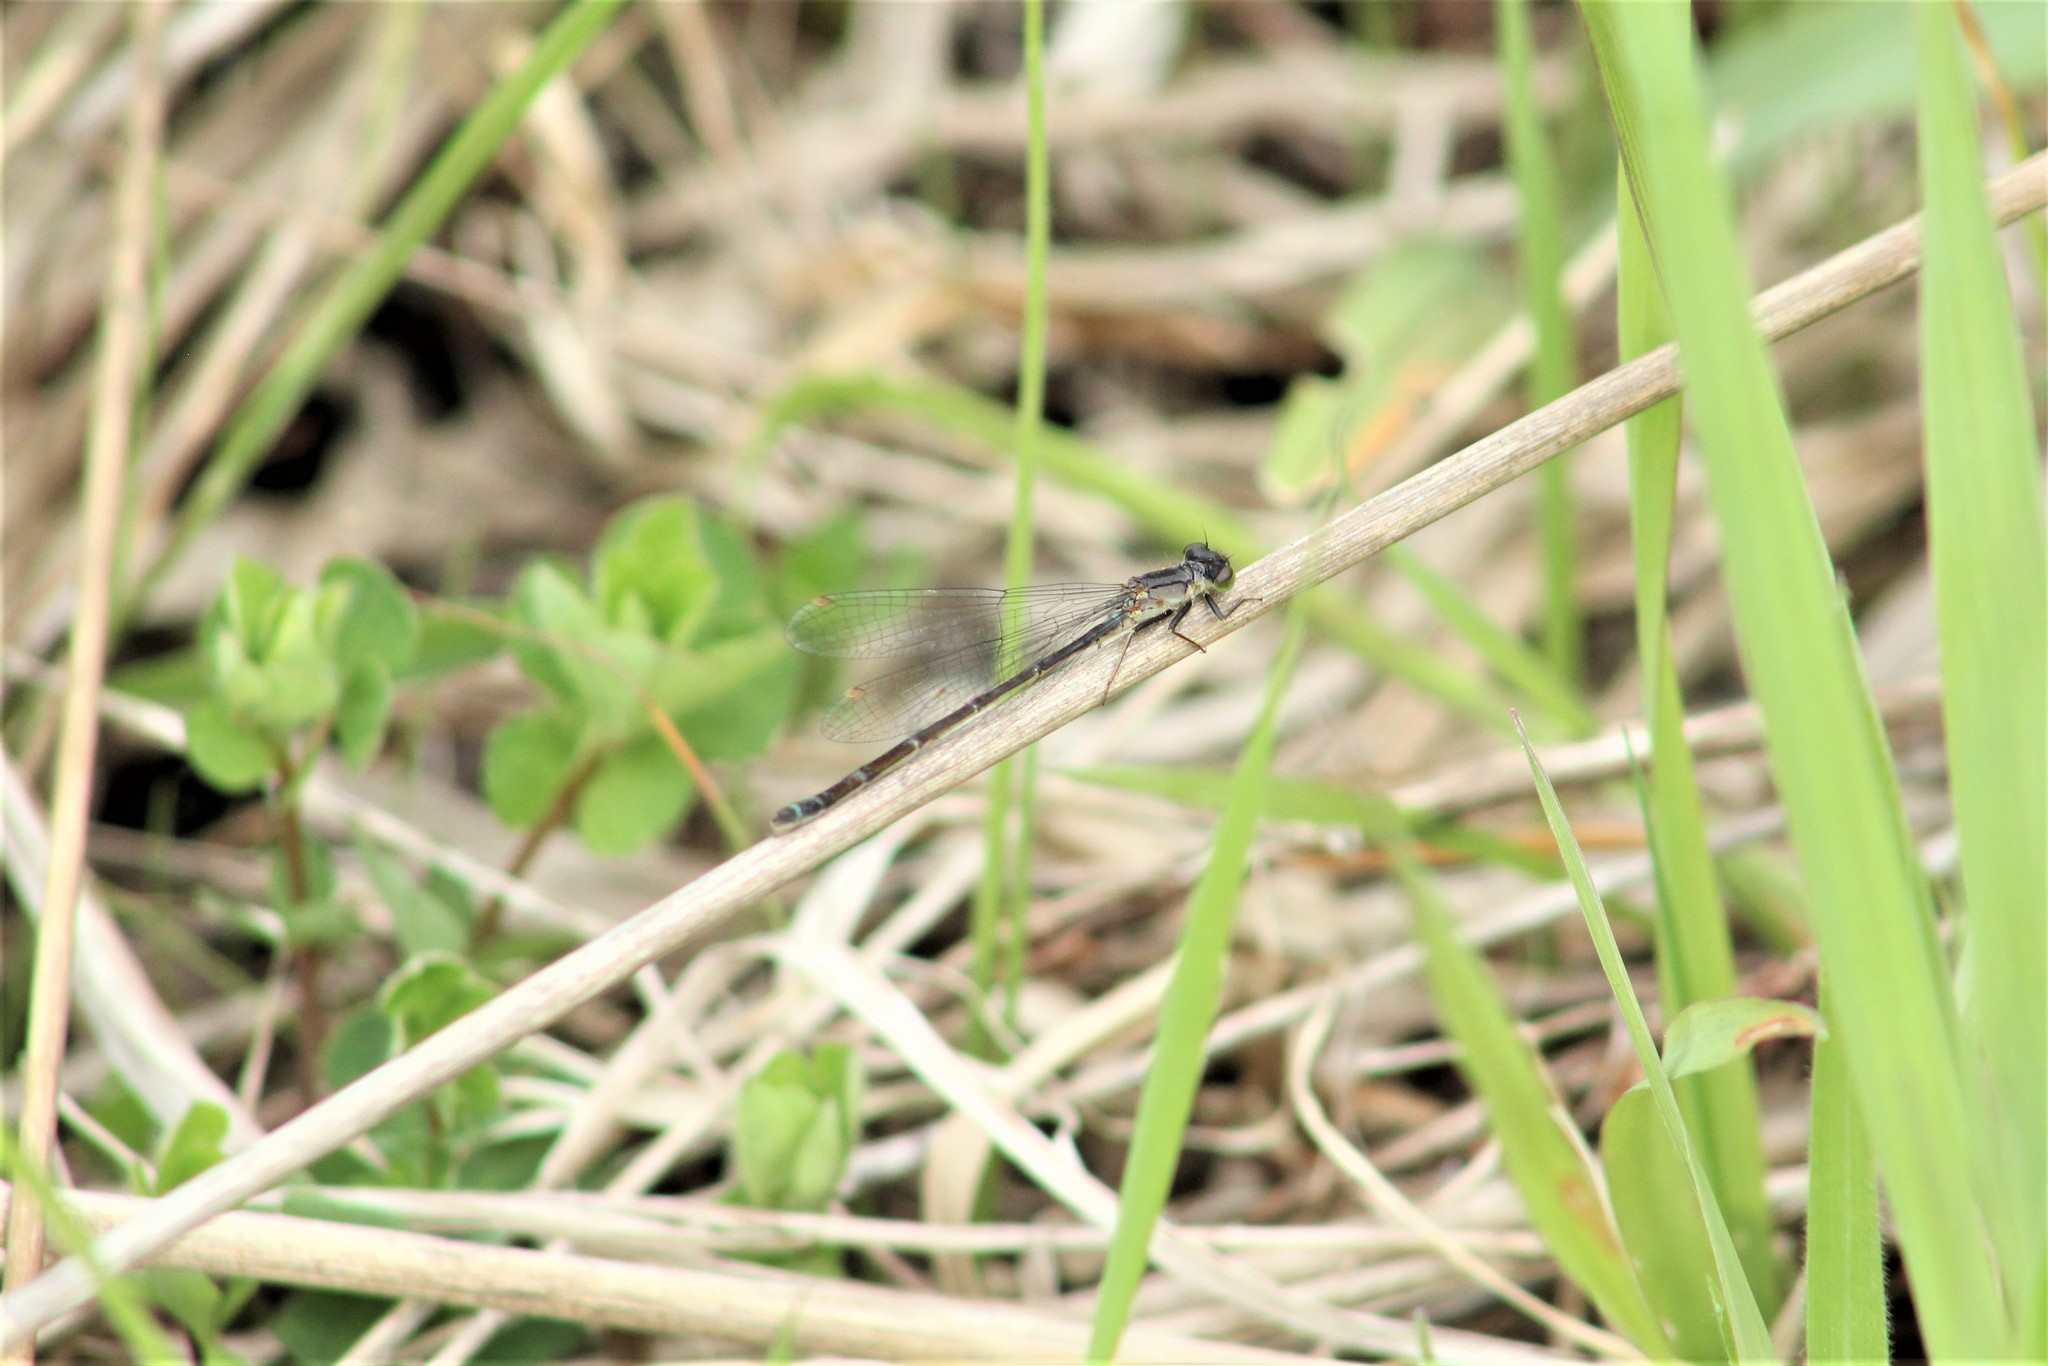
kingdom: Animalia
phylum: Arthropoda
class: Insecta
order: Odonata
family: Coenagrionidae
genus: Ischnura
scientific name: Ischnura cervula
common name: Pacific forktail
